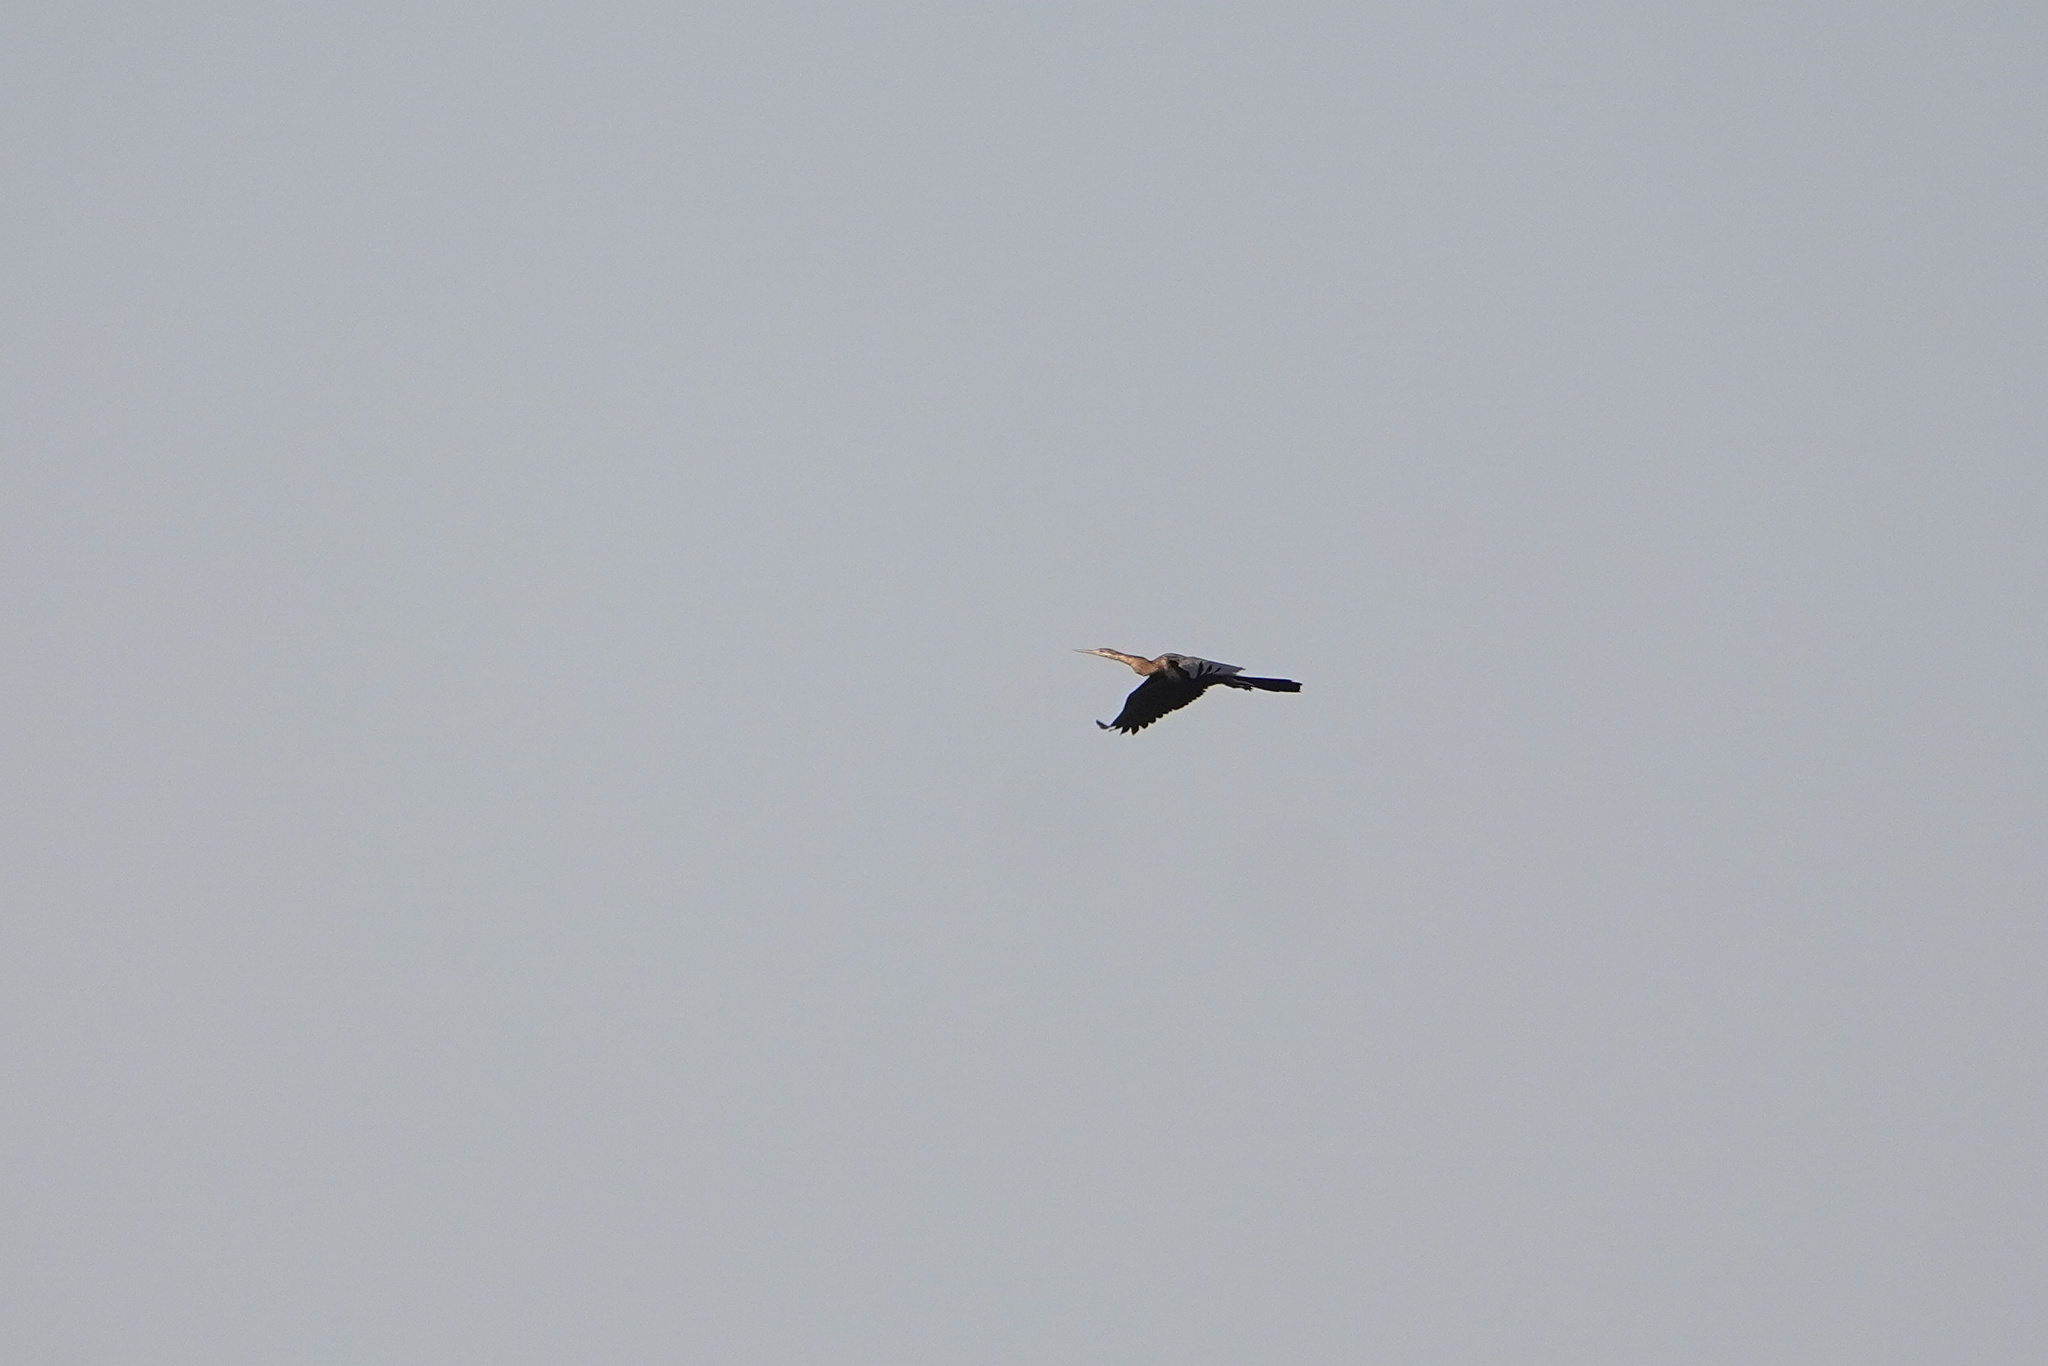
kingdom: Animalia
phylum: Chordata
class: Aves
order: Suliformes
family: Anhingidae
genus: Anhinga
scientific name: Anhinga rufa
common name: African darter
